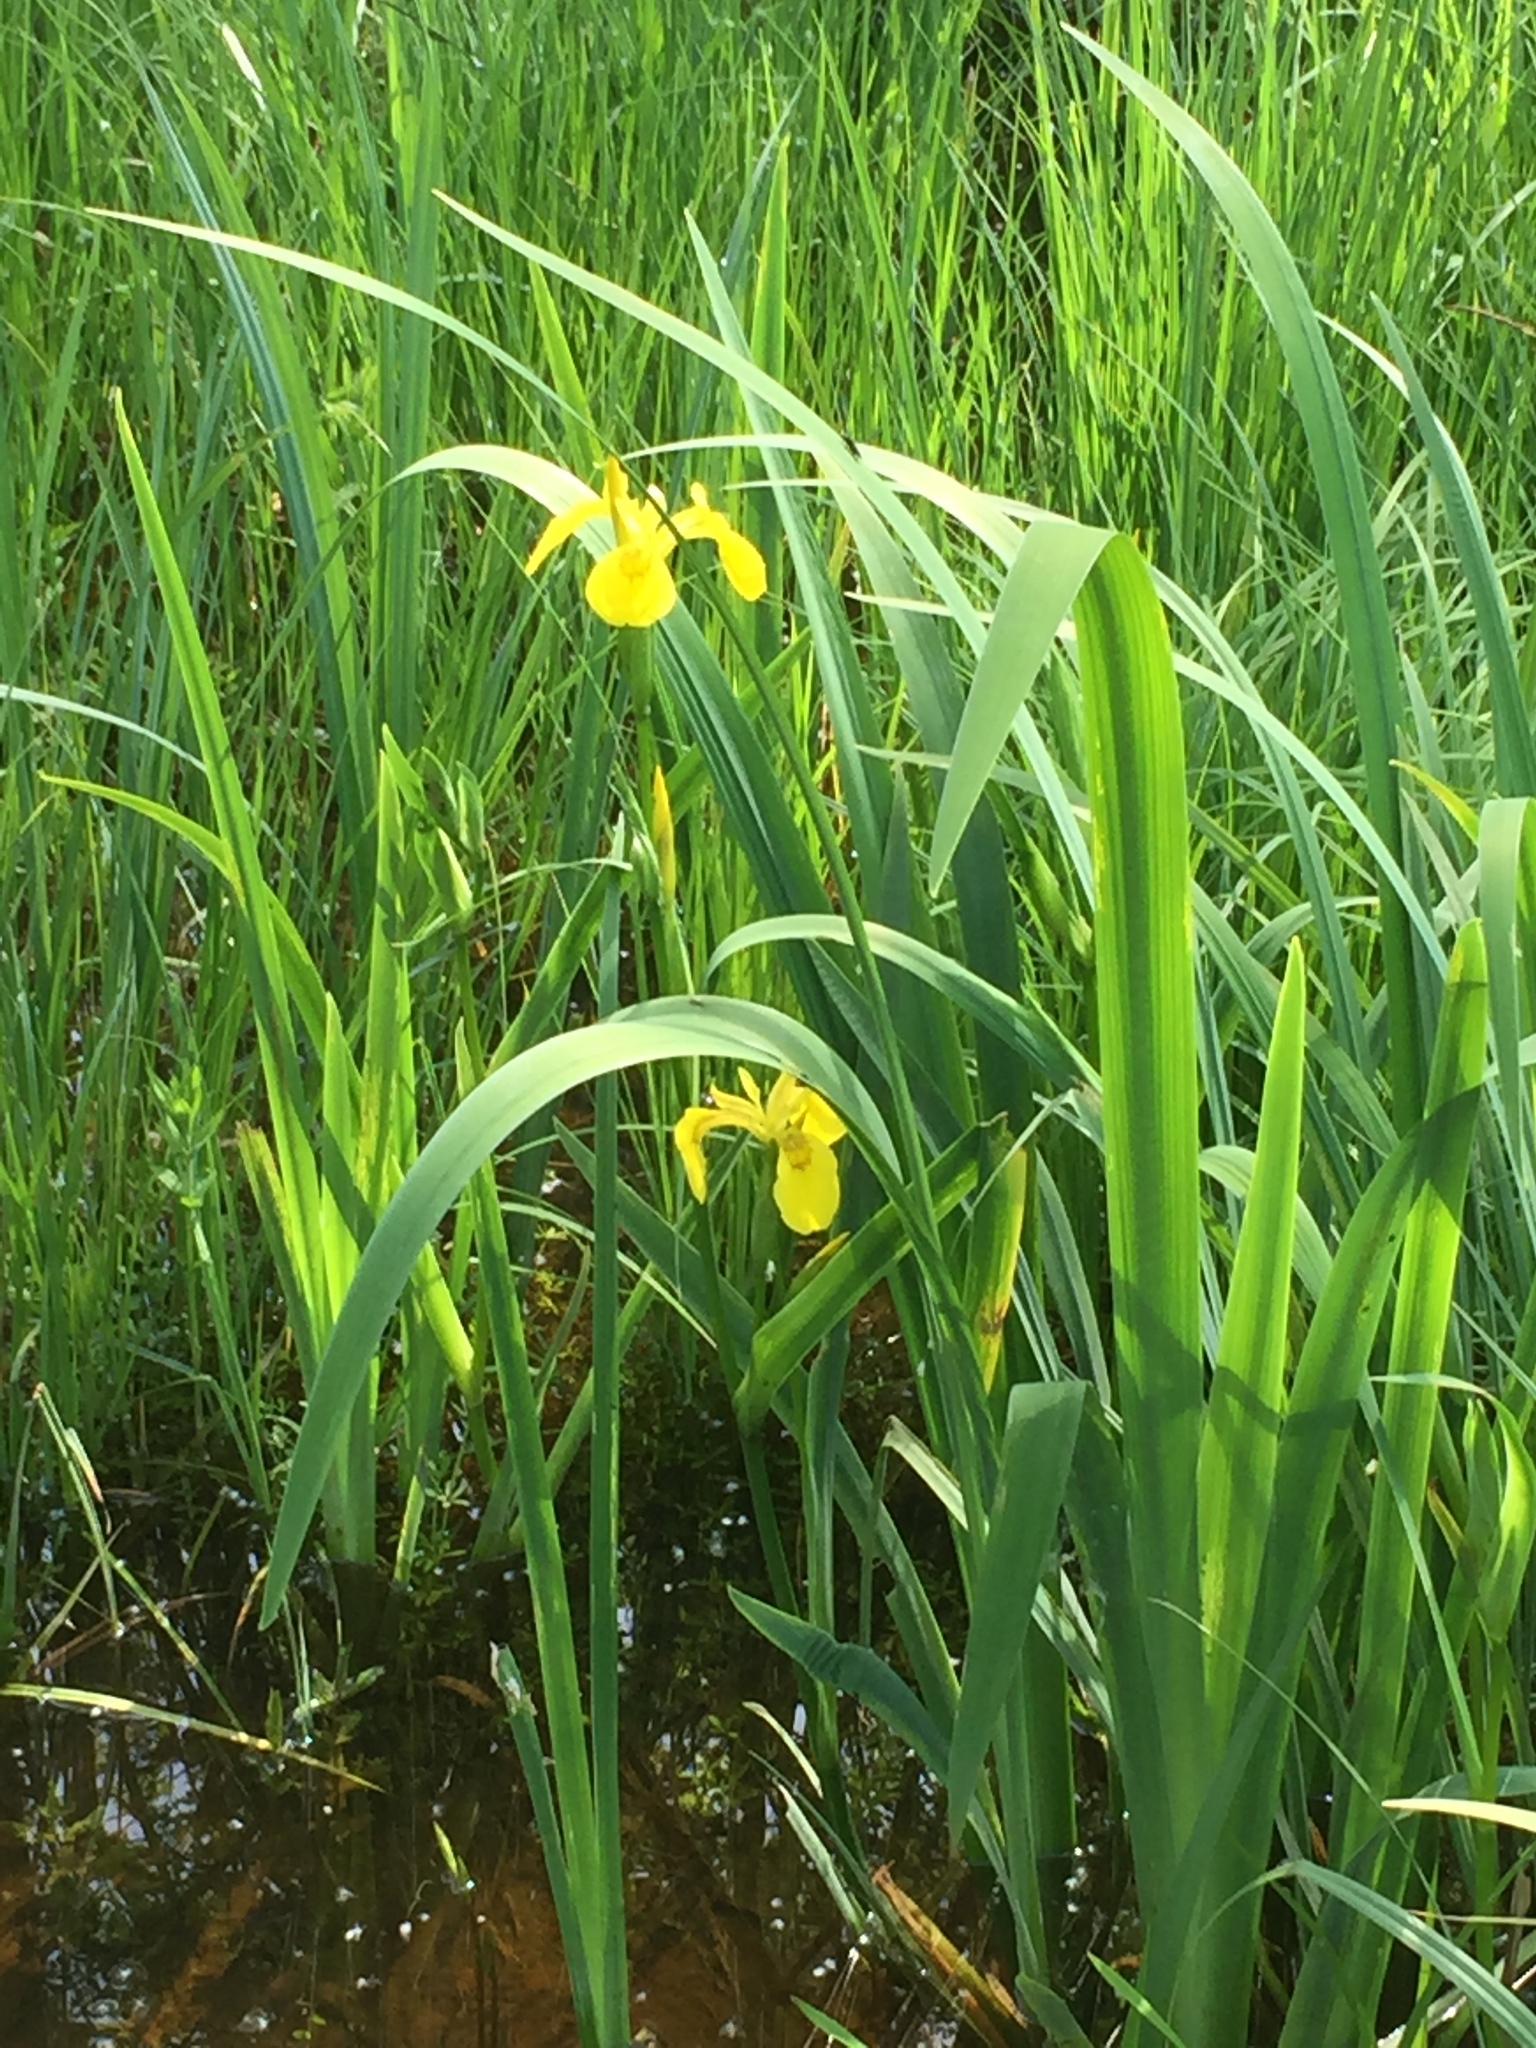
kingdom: Plantae
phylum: Tracheophyta
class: Liliopsida
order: Asparagales
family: Iridaceae
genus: Iris
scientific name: Iris pseudacorus
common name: Yellow flag
